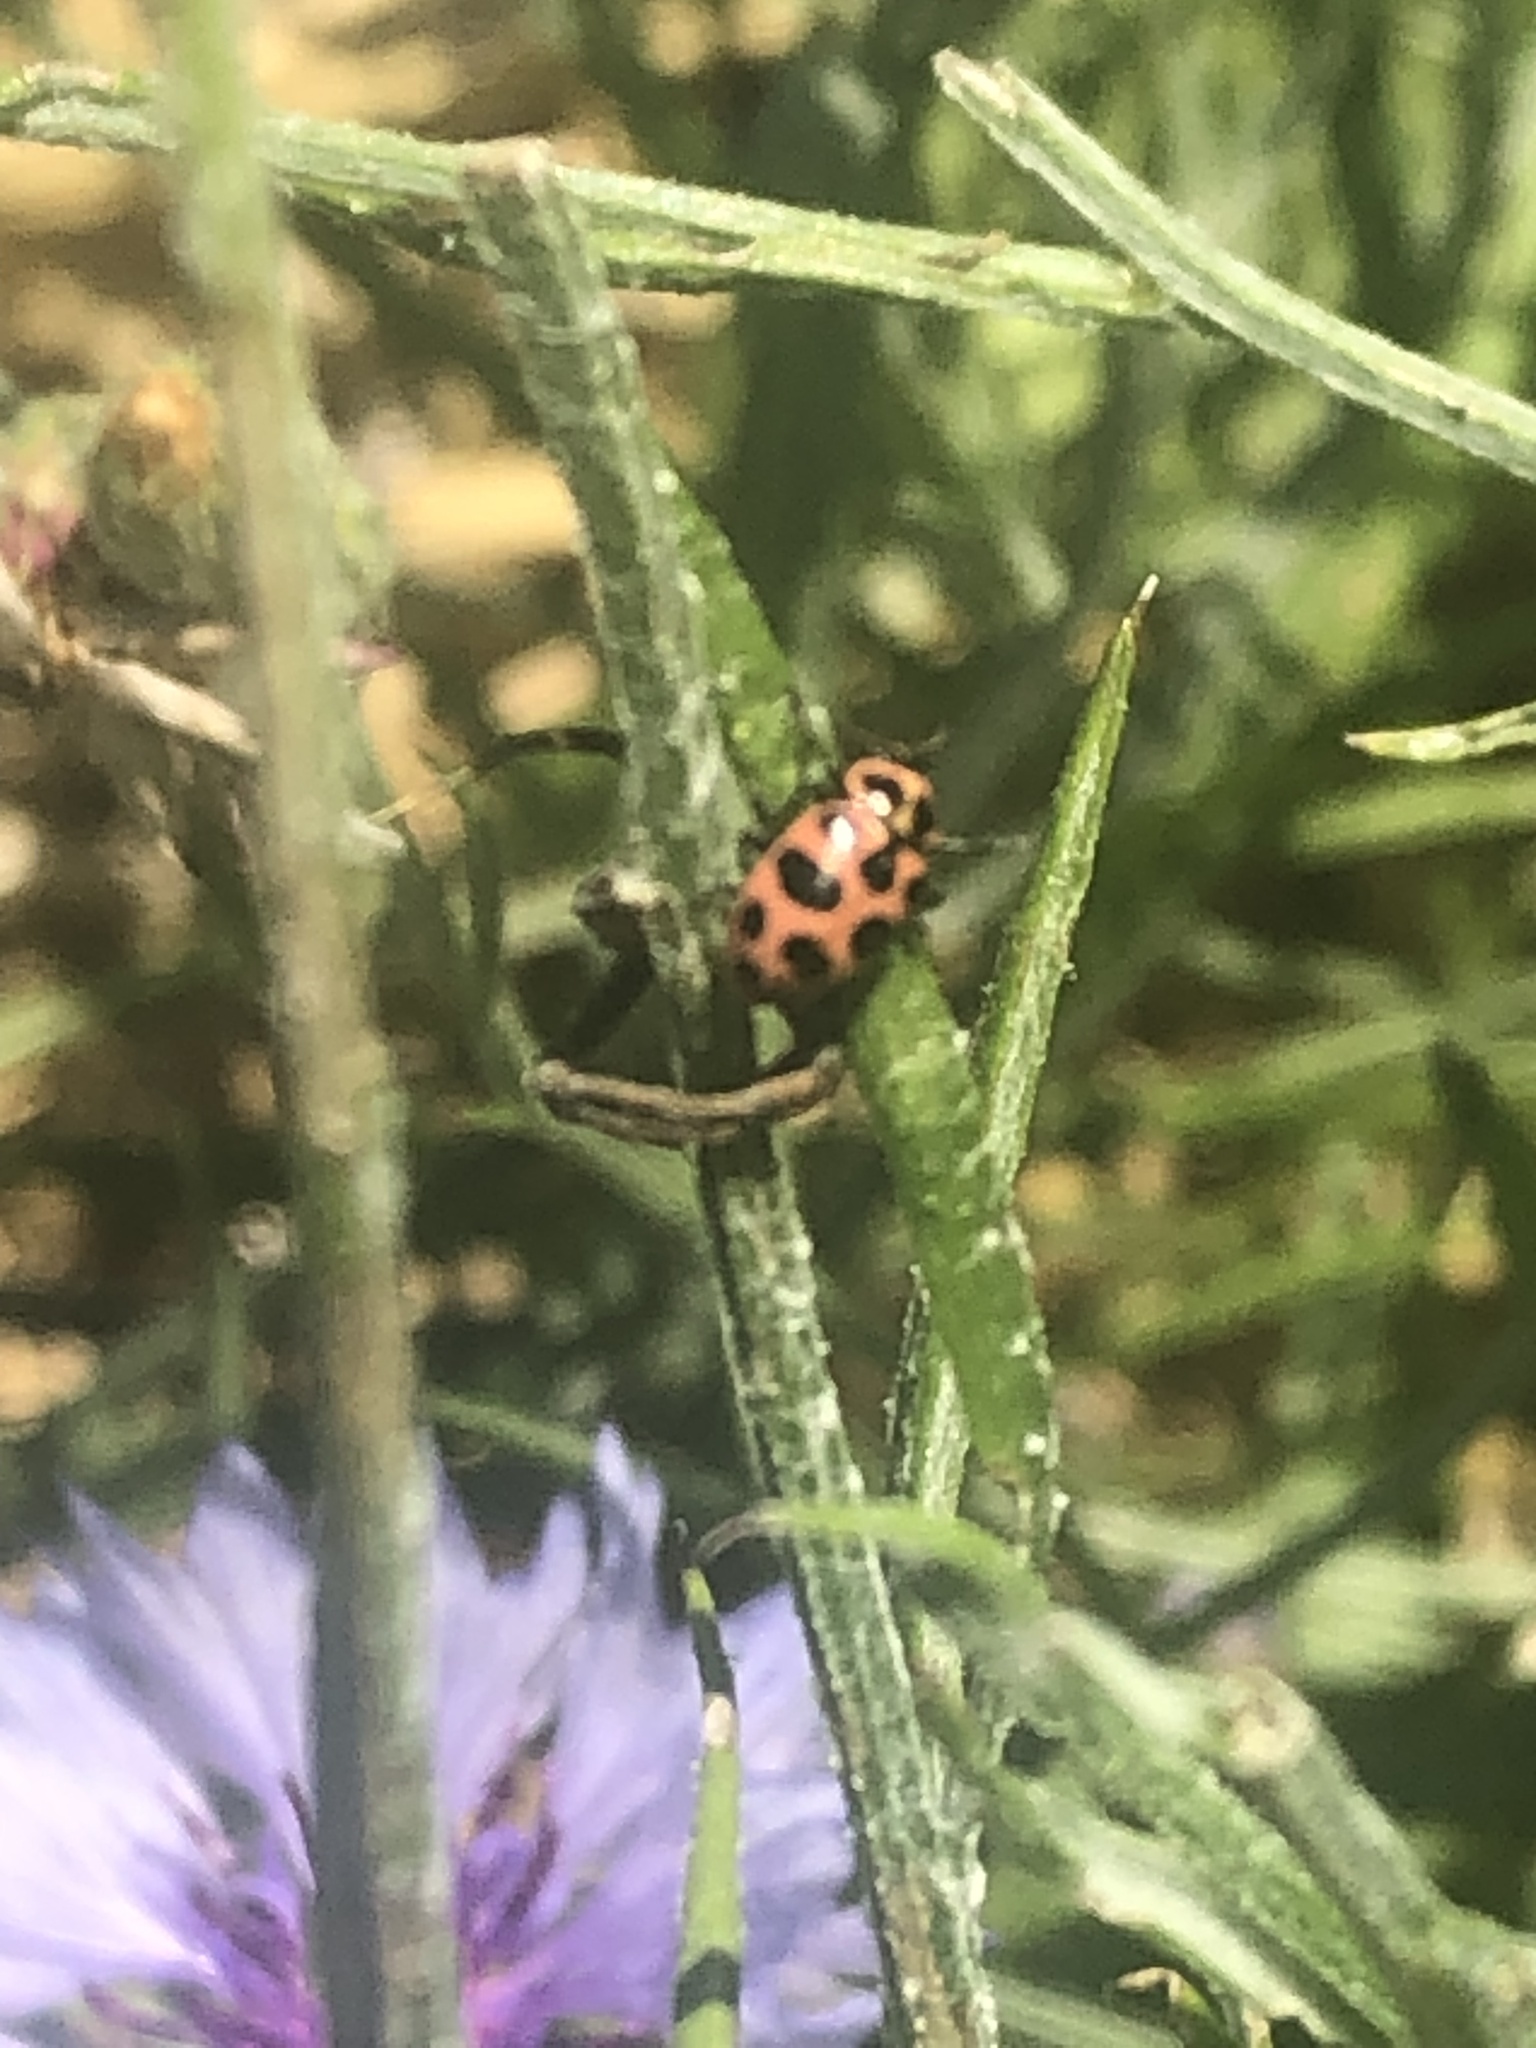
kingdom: Animalia
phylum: Arthropoda
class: Insecta
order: Coleoptera
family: Coccinellidae
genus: Coleomegilla
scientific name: Coleomegilla maculata
